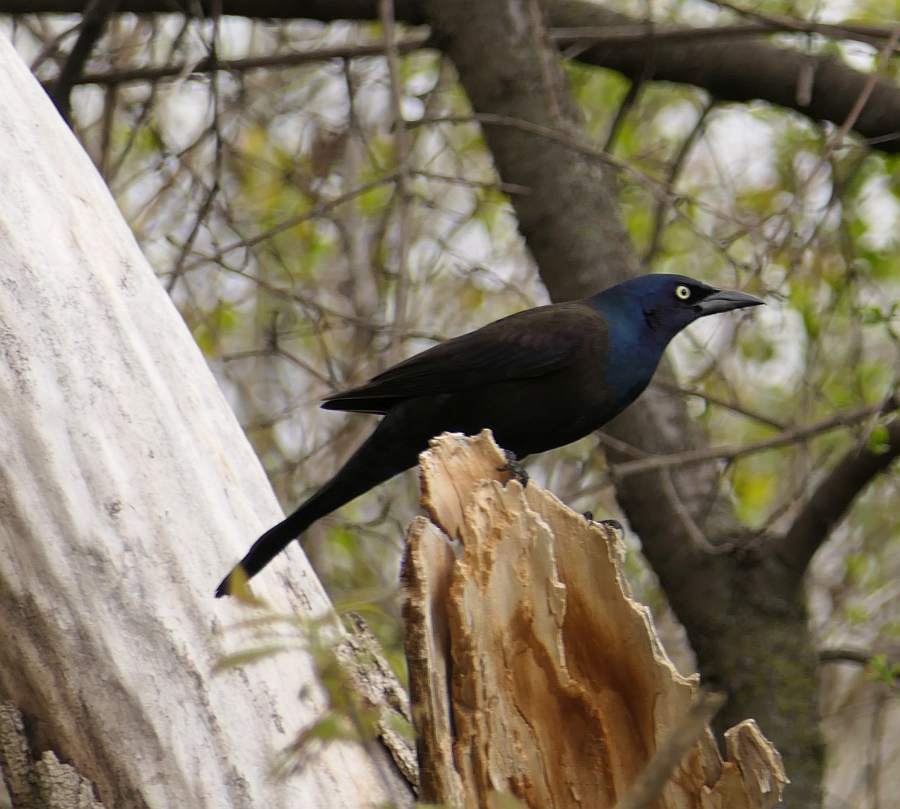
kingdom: Animalia
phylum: Chordata
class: Aves
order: Passeriformes
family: Icteridae
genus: Quiscalus
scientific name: Quiscalus quiscula
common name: Common grackle
